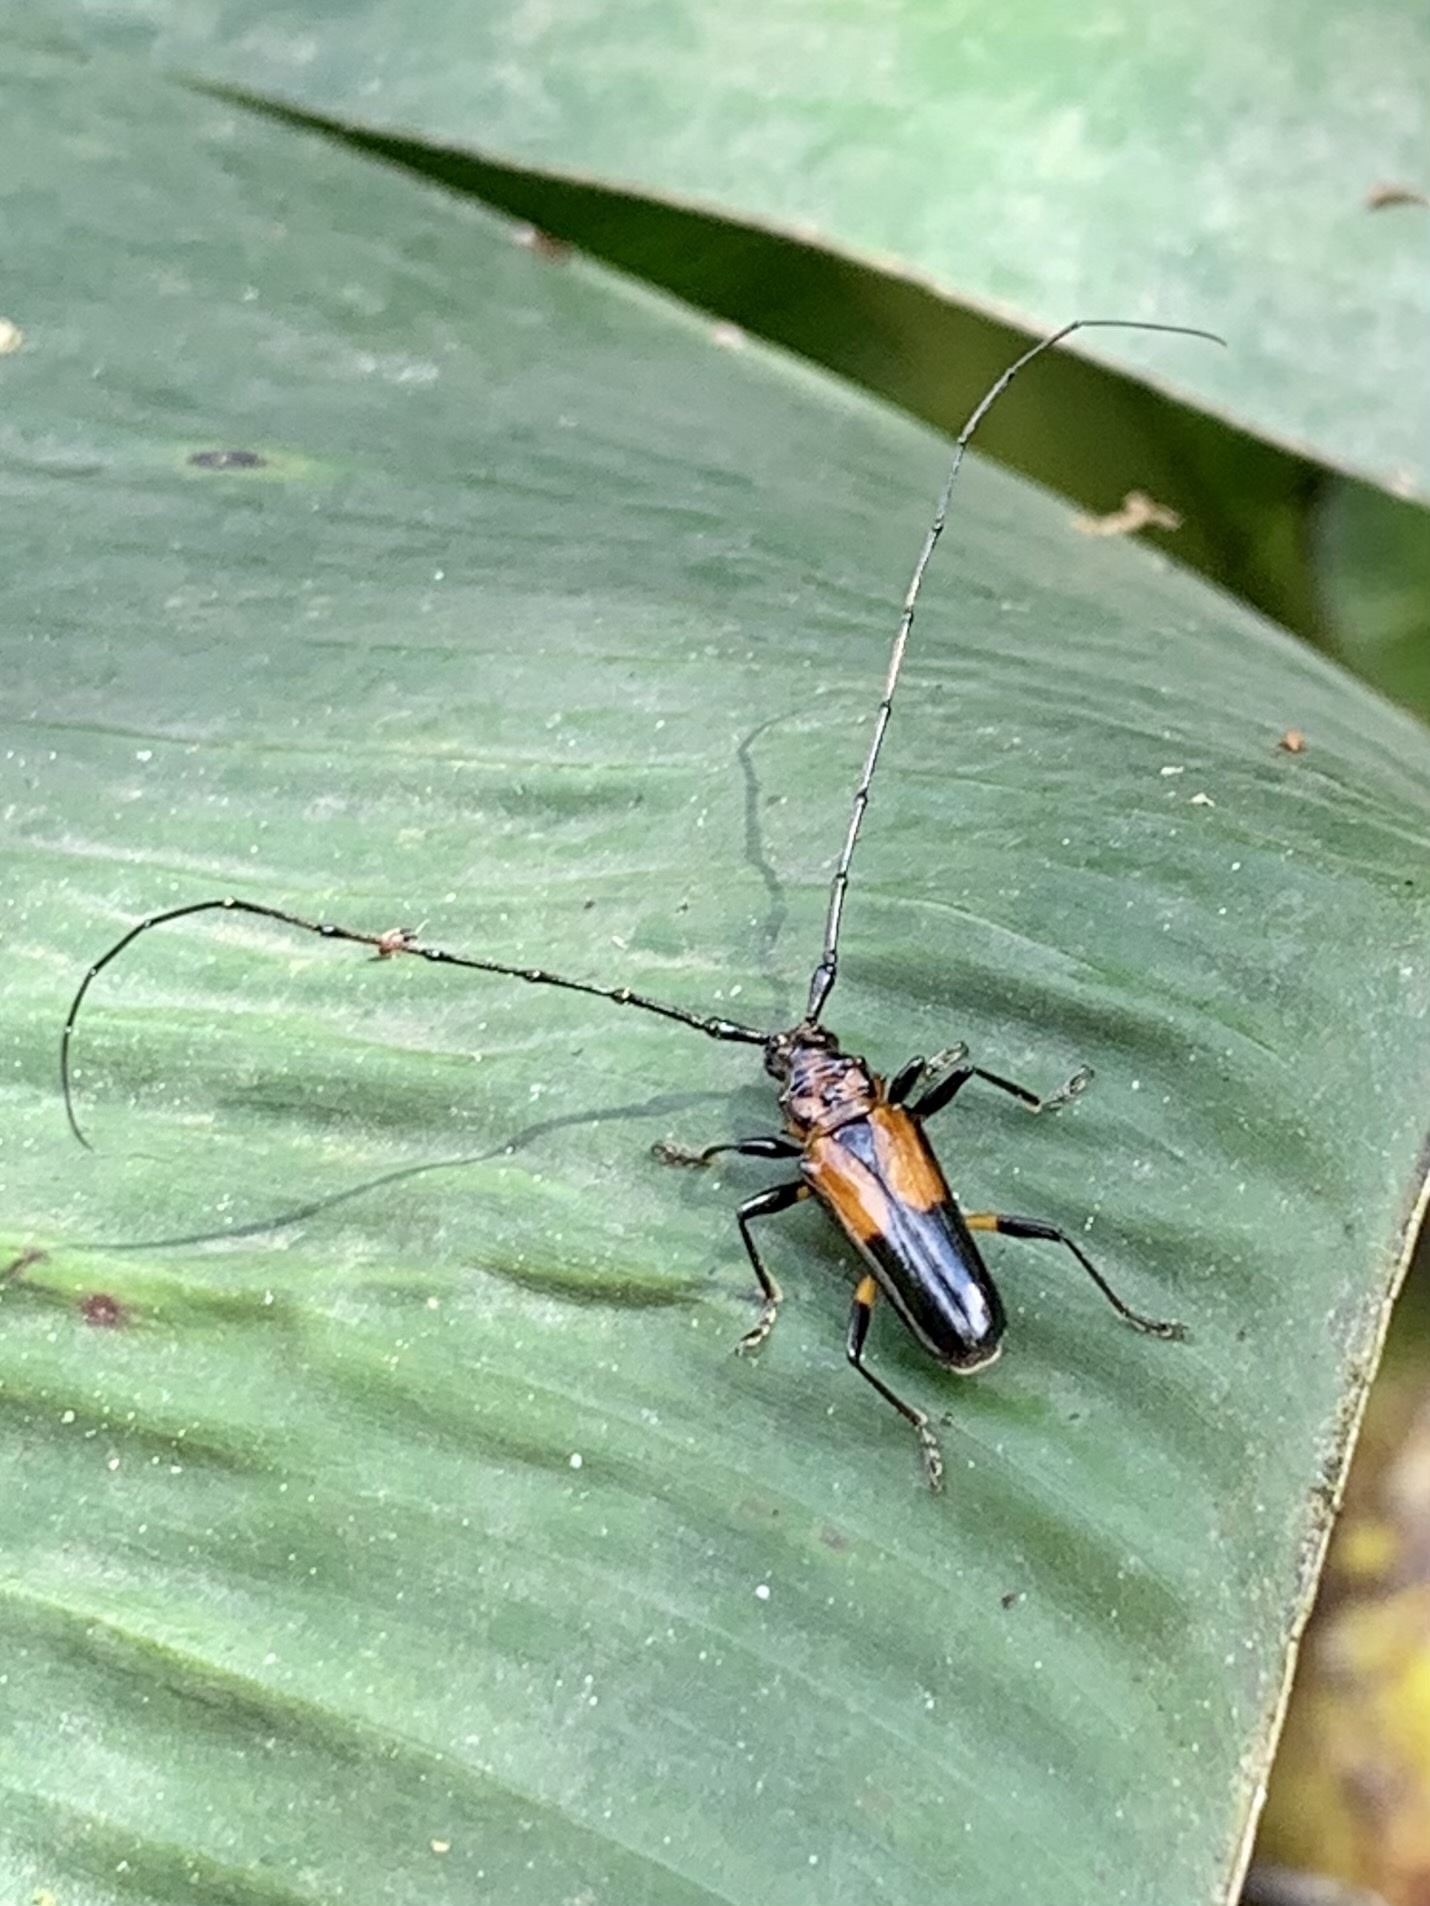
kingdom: Animalia
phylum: Arthropoda
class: Insecta
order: Coleoptera
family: Cerambycidae
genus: Chydarteres
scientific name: Chydarteres dimidiatus
